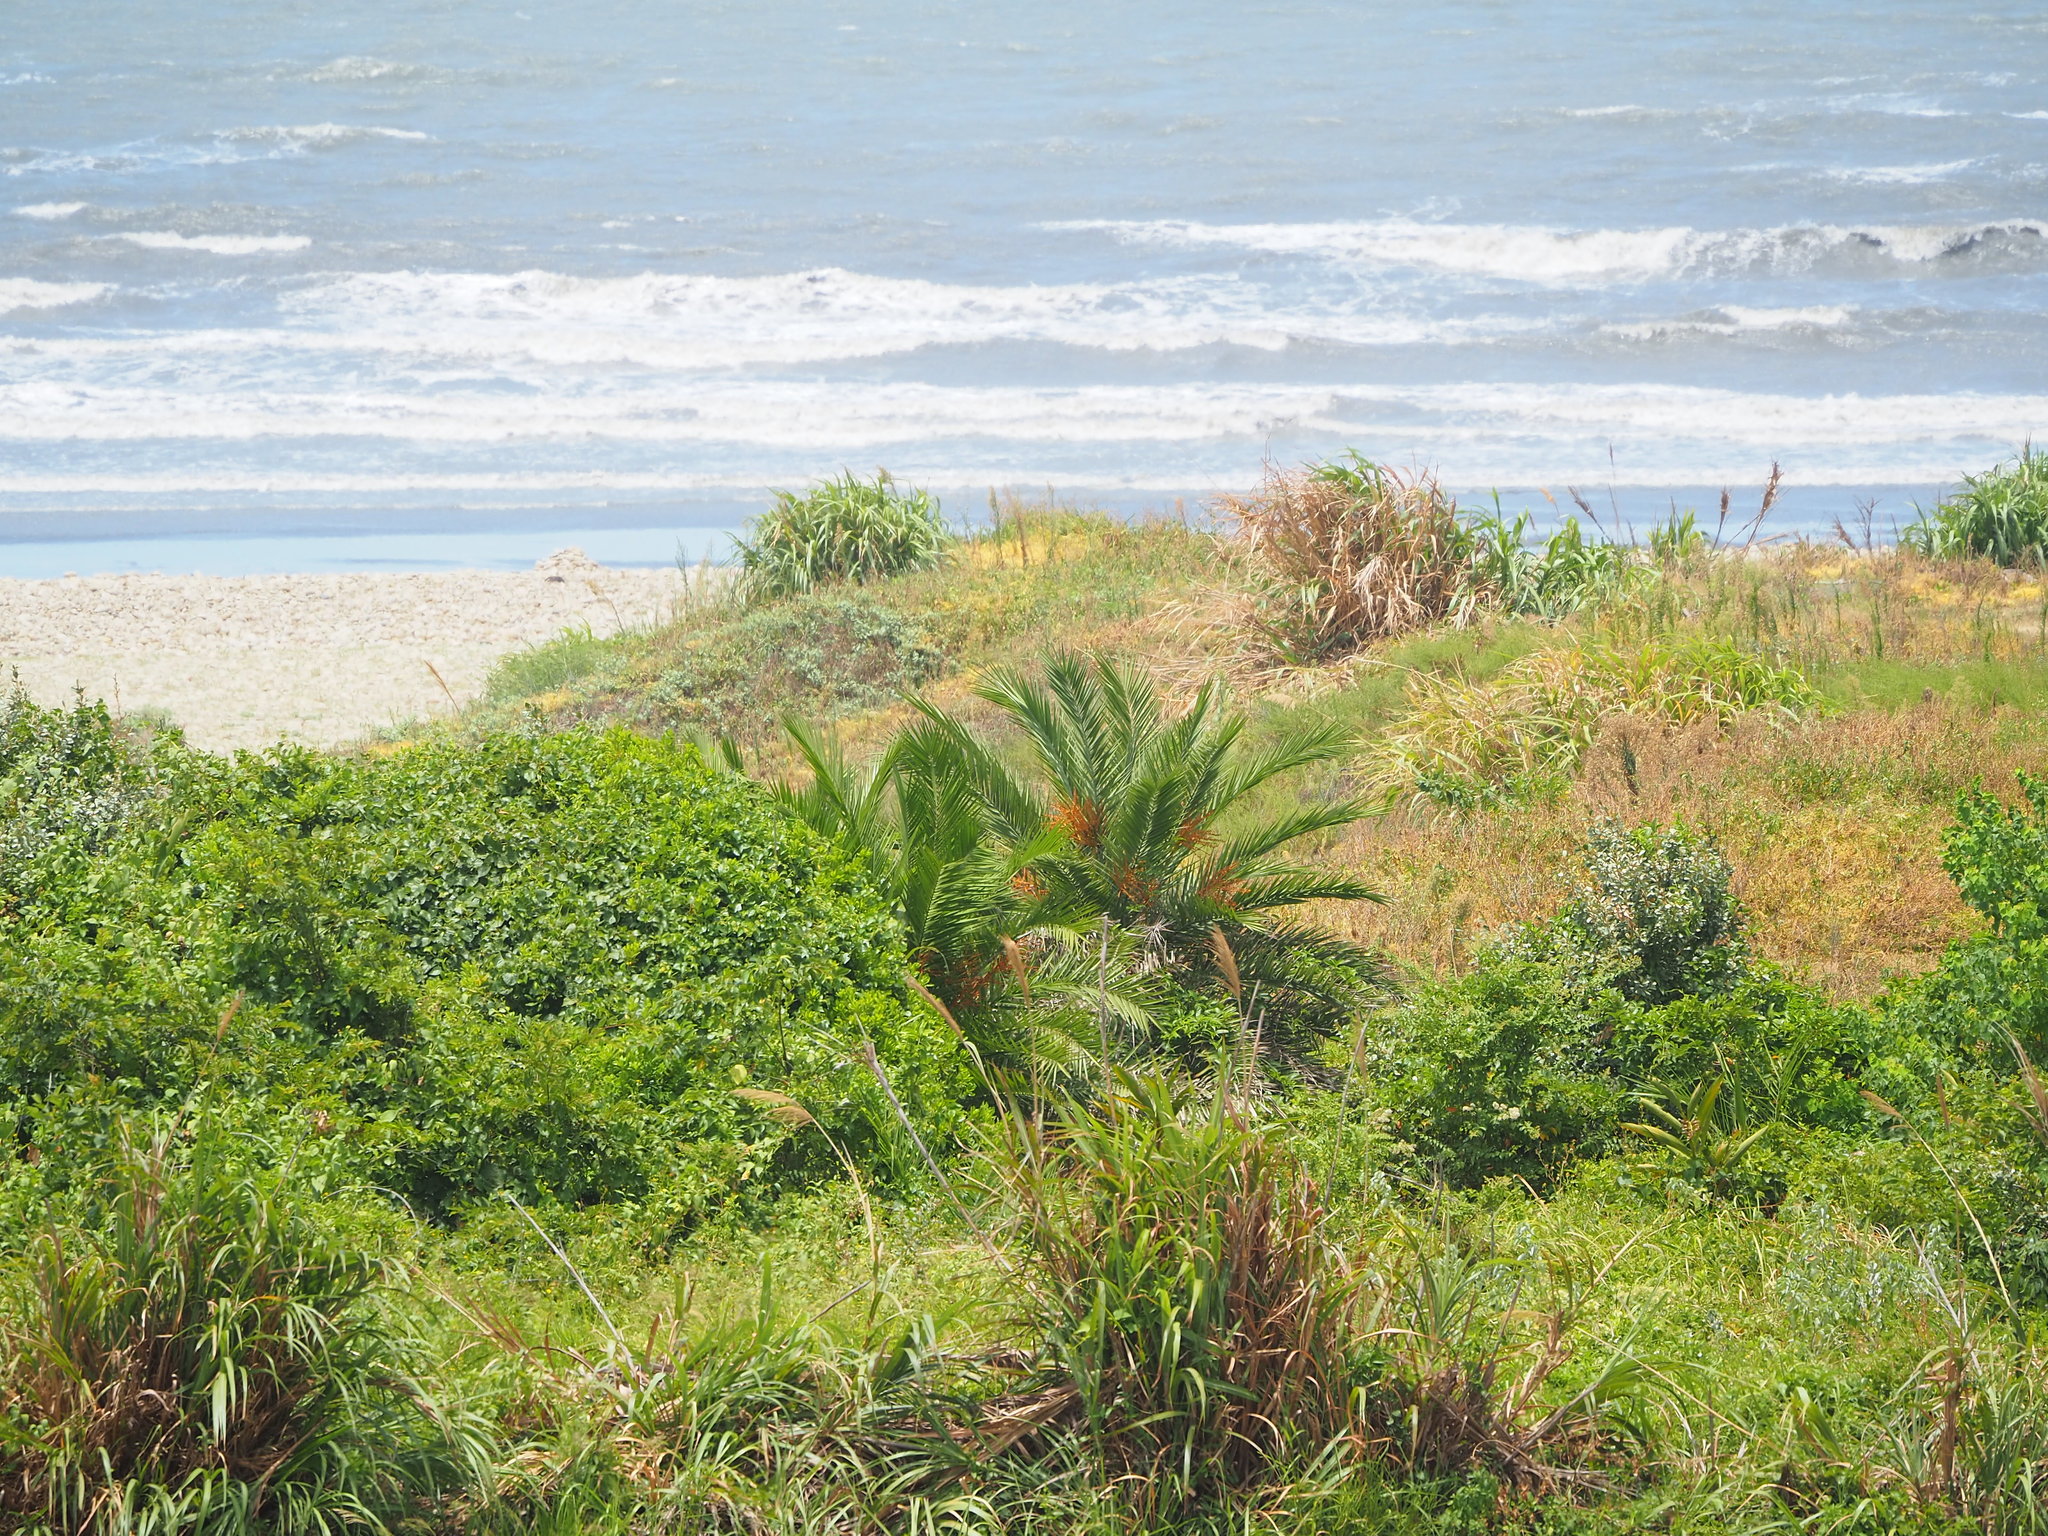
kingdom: Plantae
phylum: Tracheophyta
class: Liliopsida
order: Arecales
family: Arecaceae
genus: Phoenix
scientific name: Phoenix loureiroi
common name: Loureiro's palm
